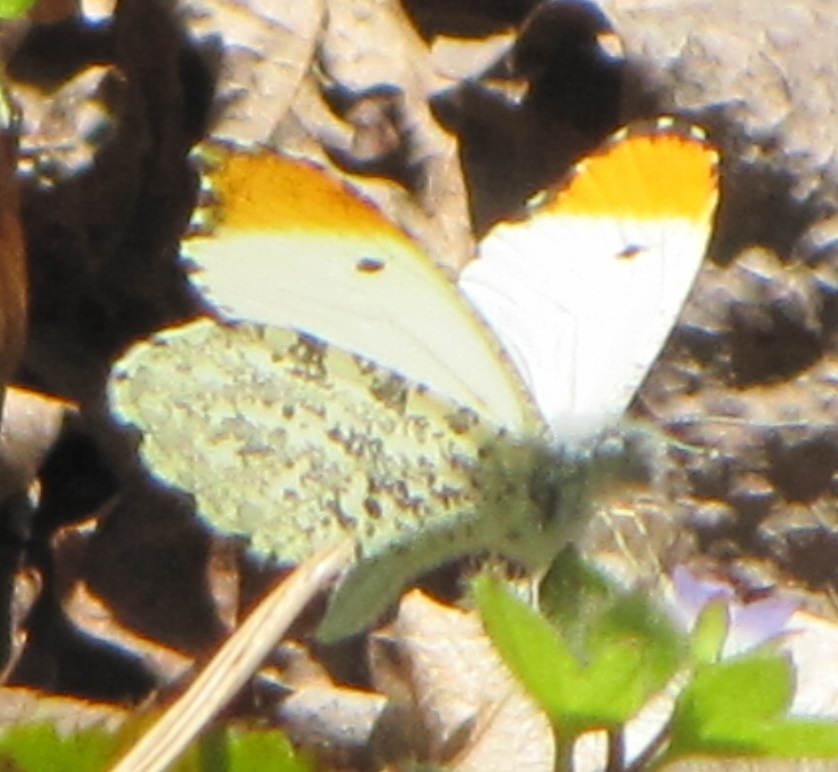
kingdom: Animalia
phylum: Arthropoda
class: Insecta
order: Lepidoptera
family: Pieridae
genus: Anthocharis
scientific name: Anthocharis midea
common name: Falcate orangetip
